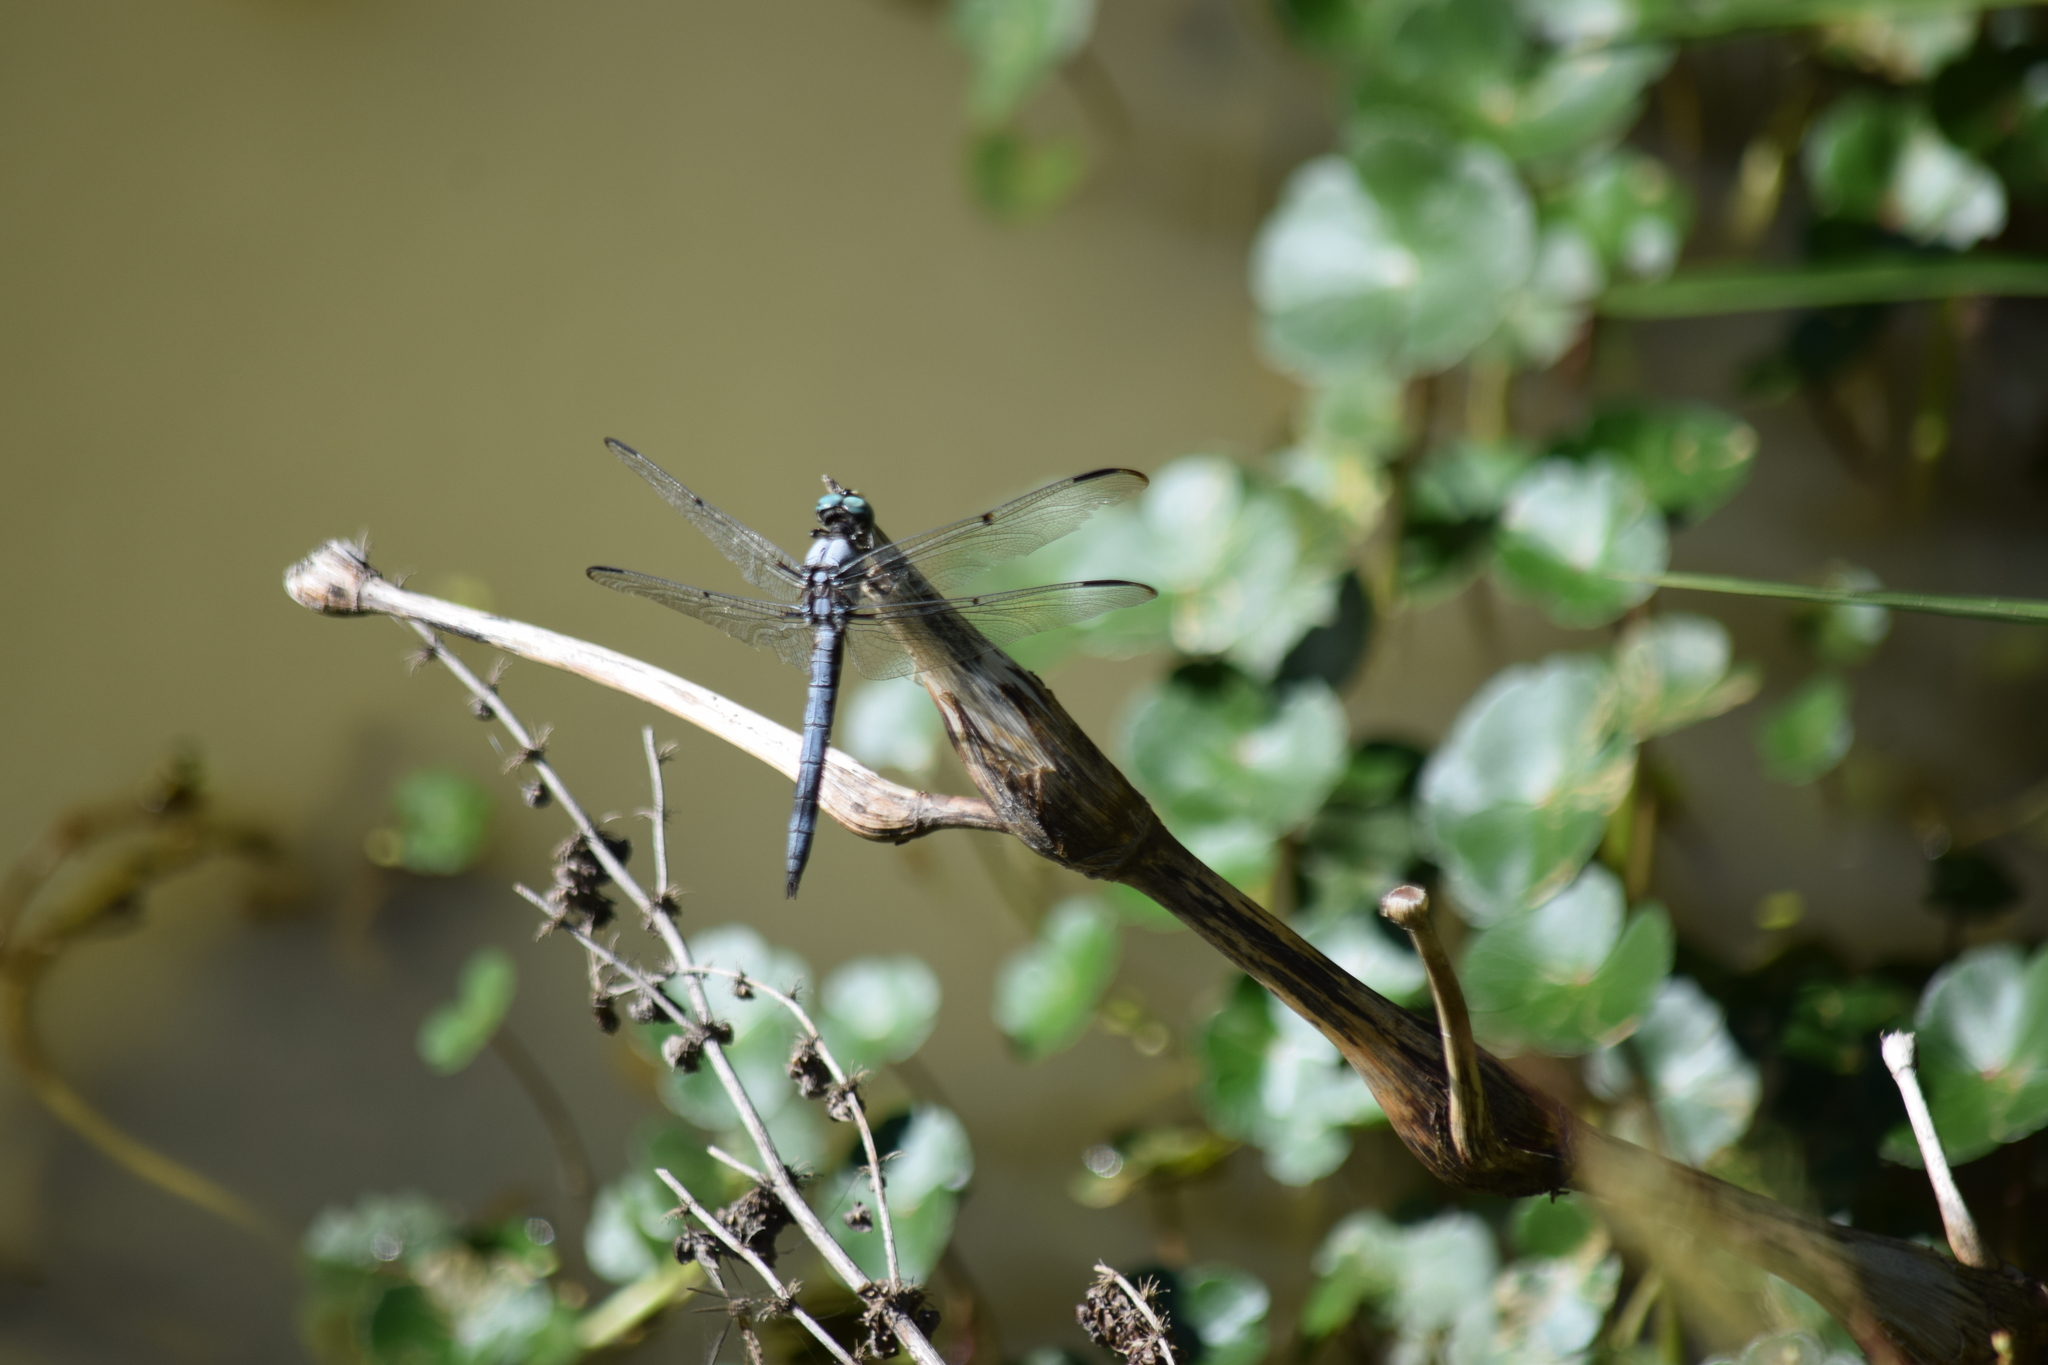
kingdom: Animalia
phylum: Arthropoda
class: Insecta
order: Odonata
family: Libellulidae
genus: Libellula
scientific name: Libellula vibrans
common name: Great blue skimmer
